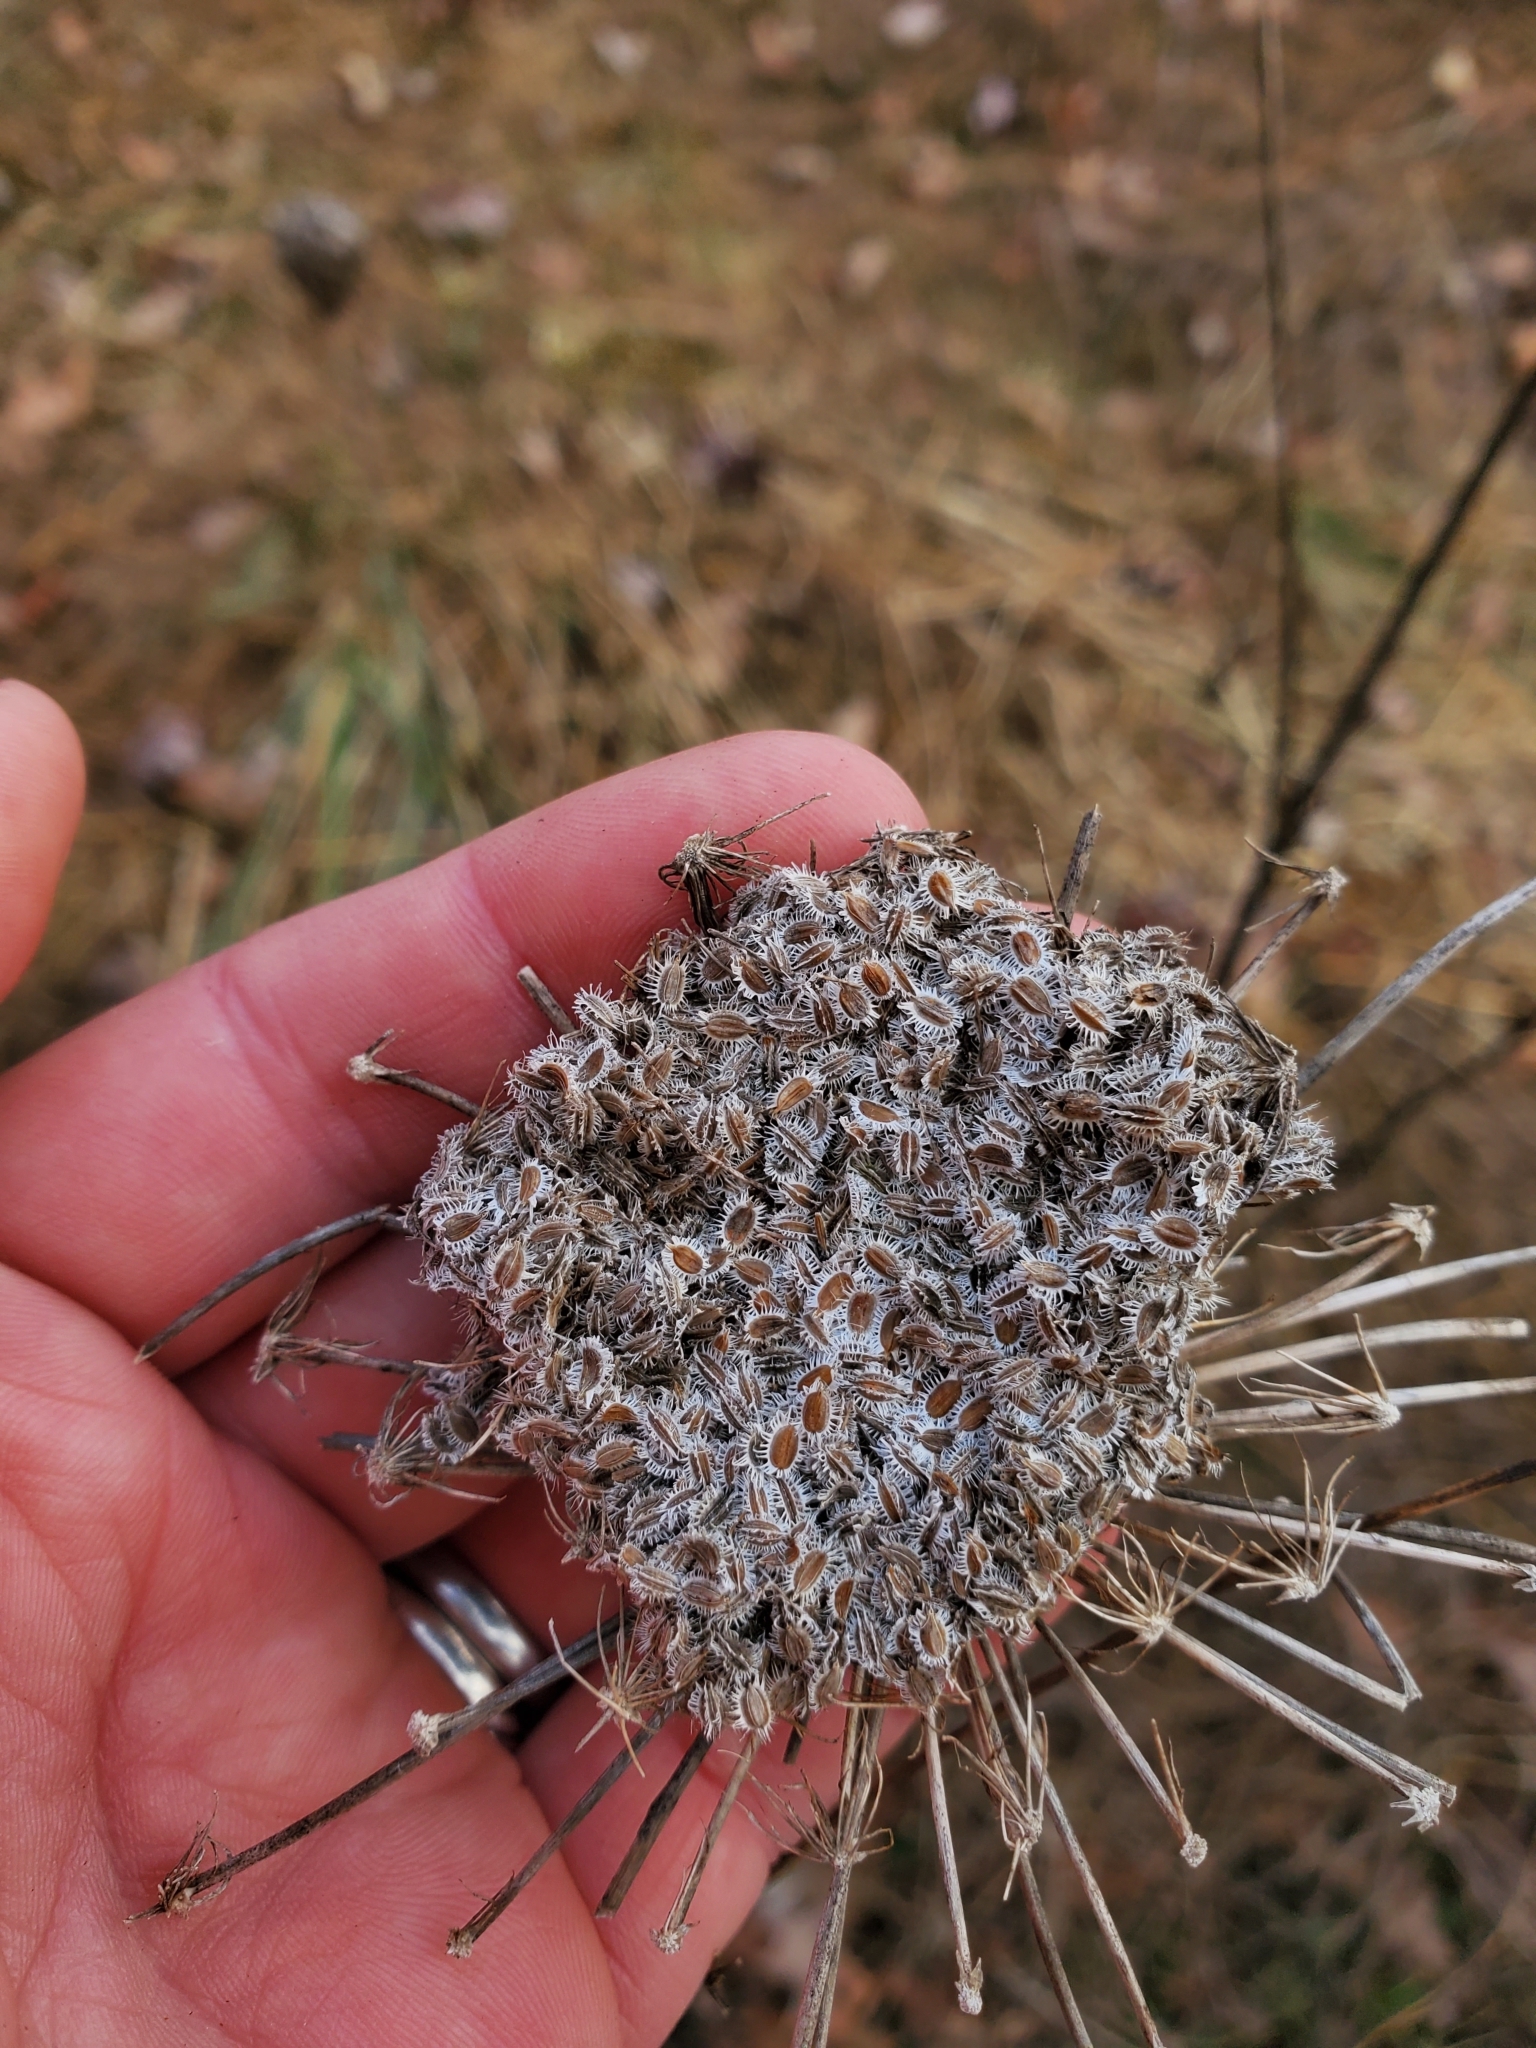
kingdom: Plantae
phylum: Tracheophyta
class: Magnoliopsida
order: Apiales
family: Apiaceae
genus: Daucus
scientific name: Daucus carota
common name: Wild carrot
